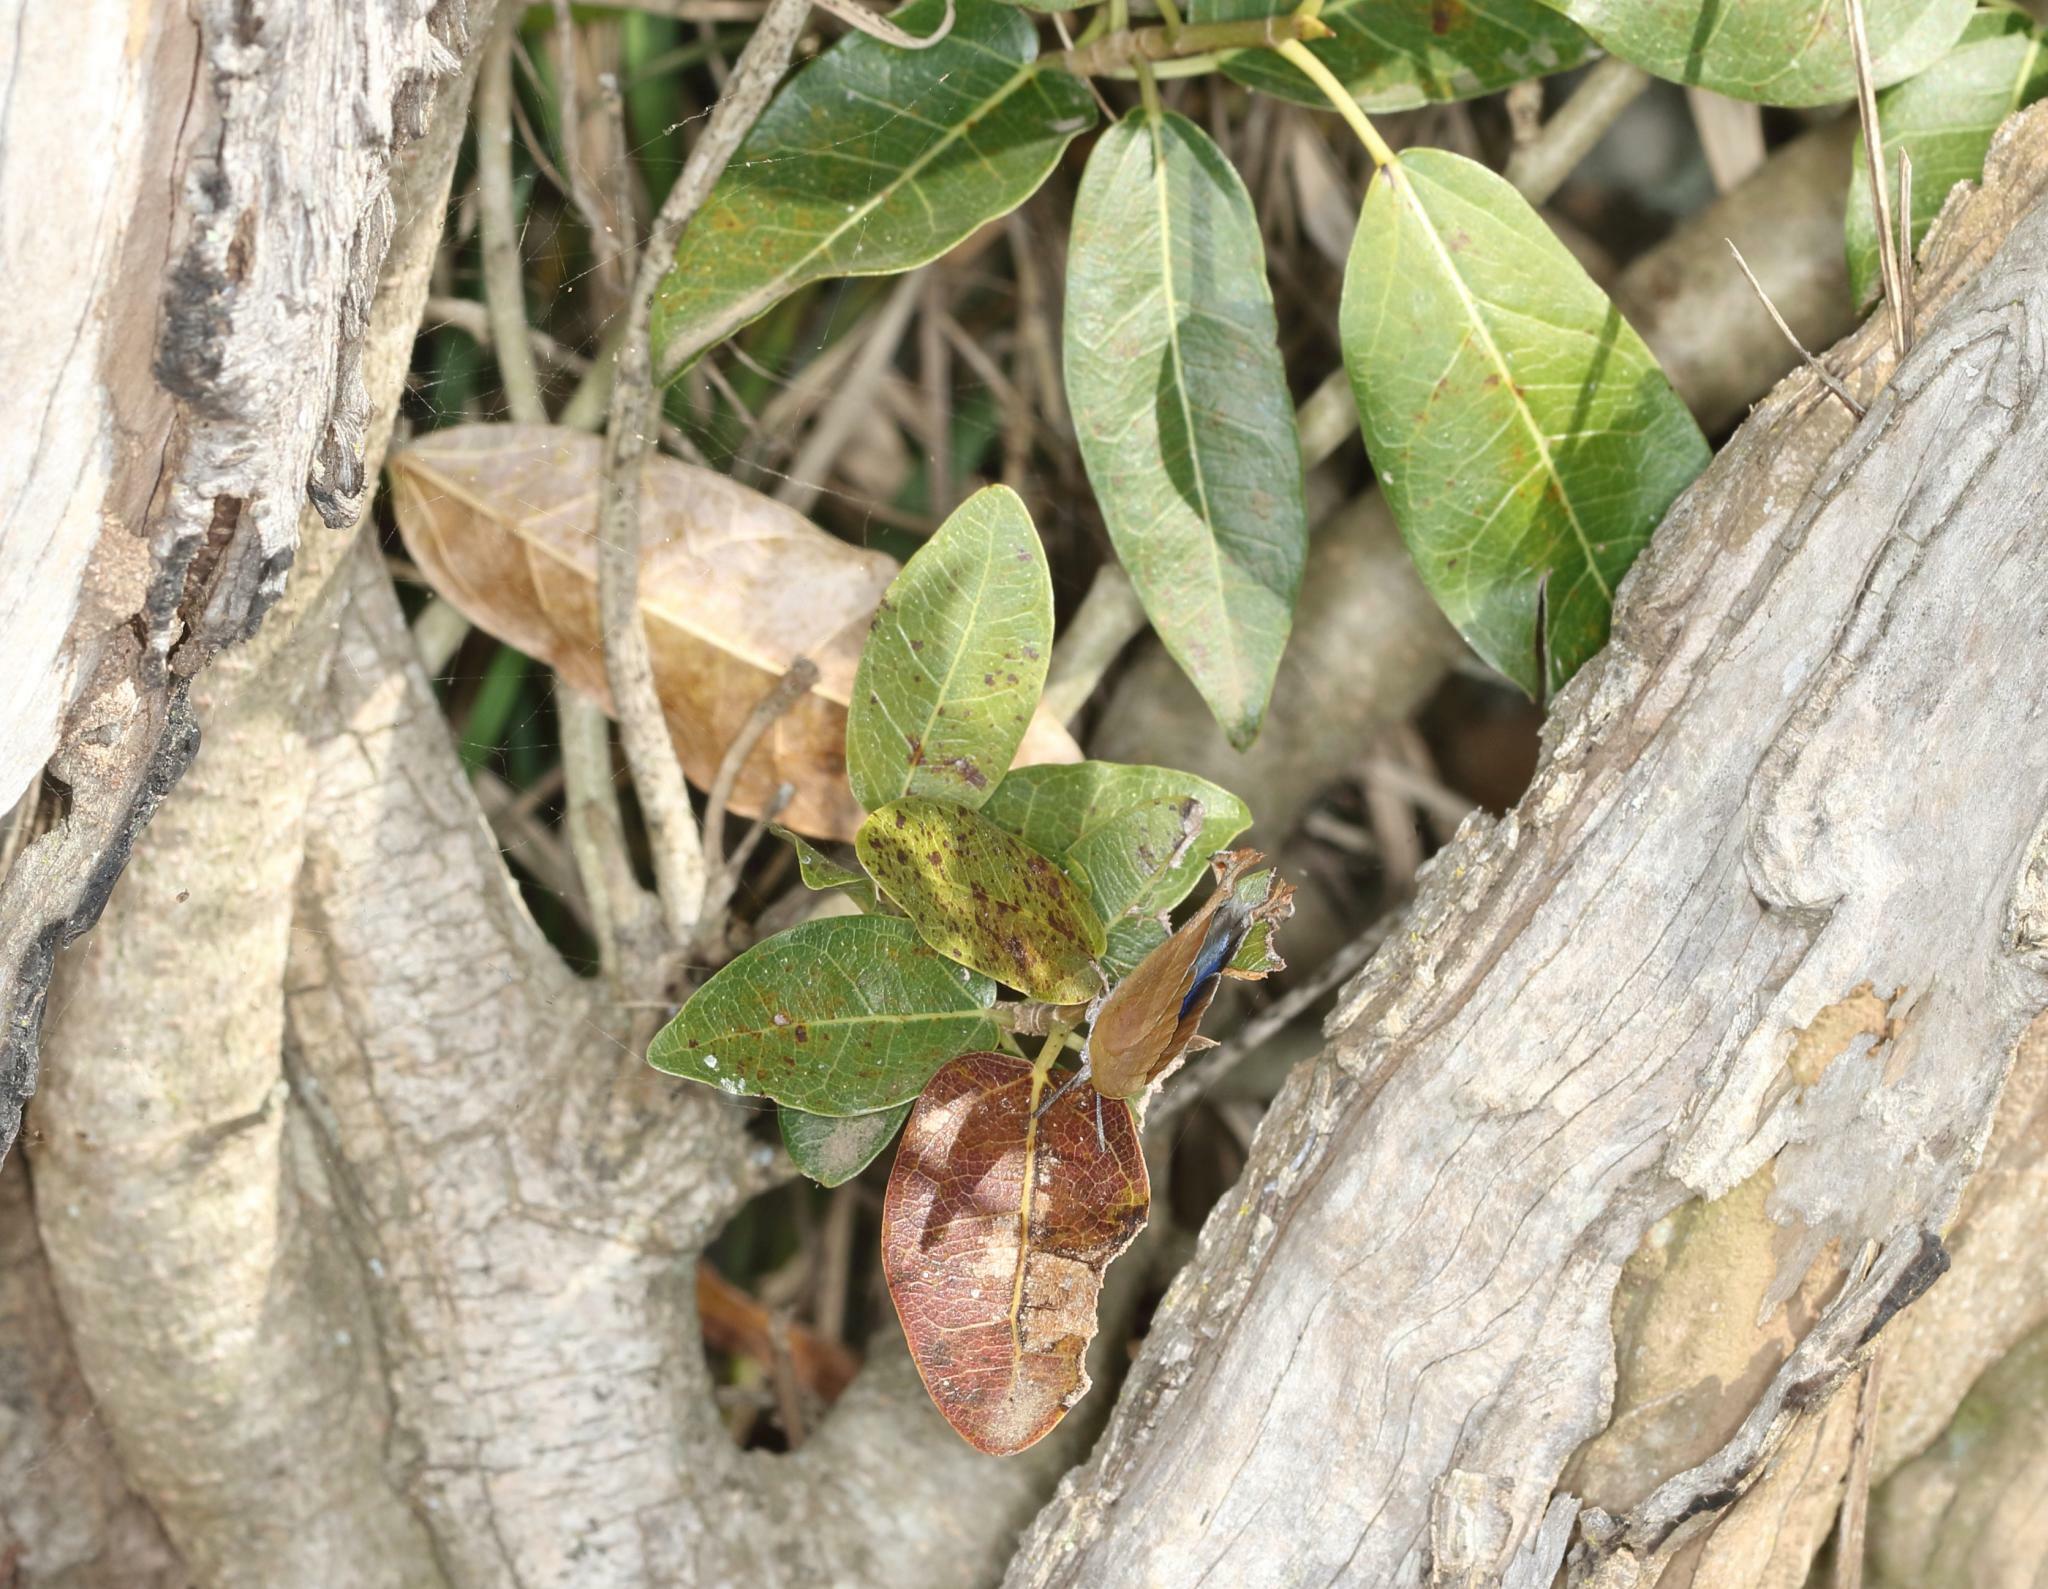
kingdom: Plantae
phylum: Tracheophyta
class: Magnoliopsida
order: Rosales
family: Moraceae
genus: Ficus
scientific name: Ficus ingens
